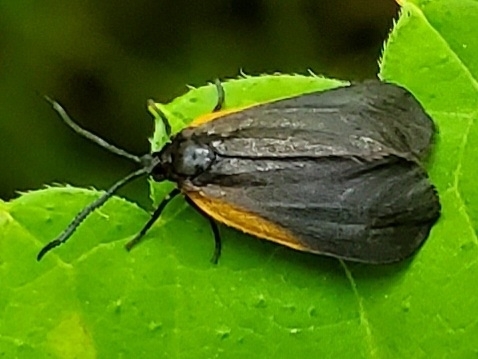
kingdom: Animalia
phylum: Arthropoda
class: Insecta
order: Lepidoptera
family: Zygaenidae
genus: Malthaca
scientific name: Malthaca dimidiata
